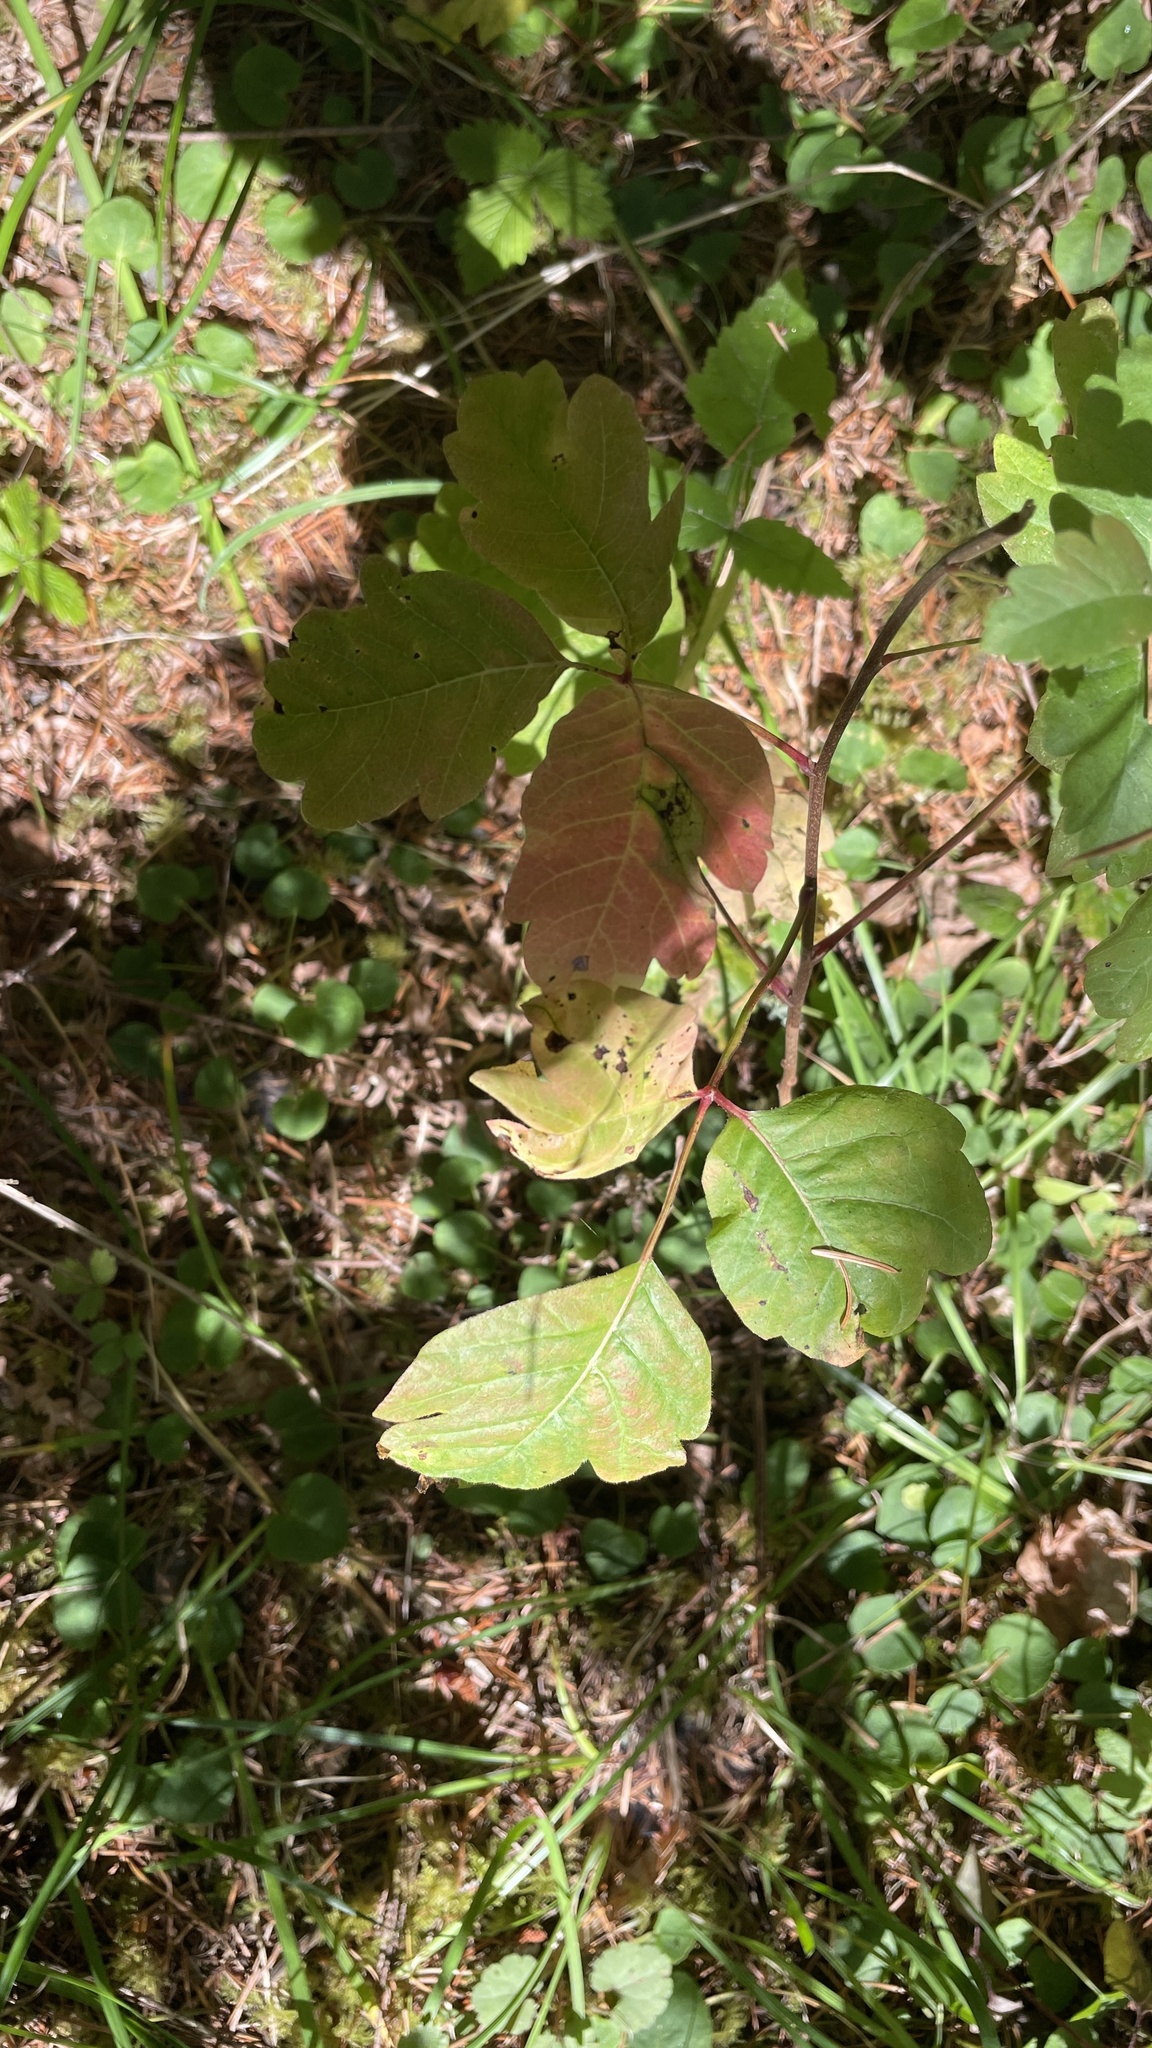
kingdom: Plantae
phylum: Tracheophyta
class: Magnoliopsida
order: Sapindales
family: Anacardiaceae
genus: Toxicodendron
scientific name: Toxicodendron diversilobum
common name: Pacific poison-oak
